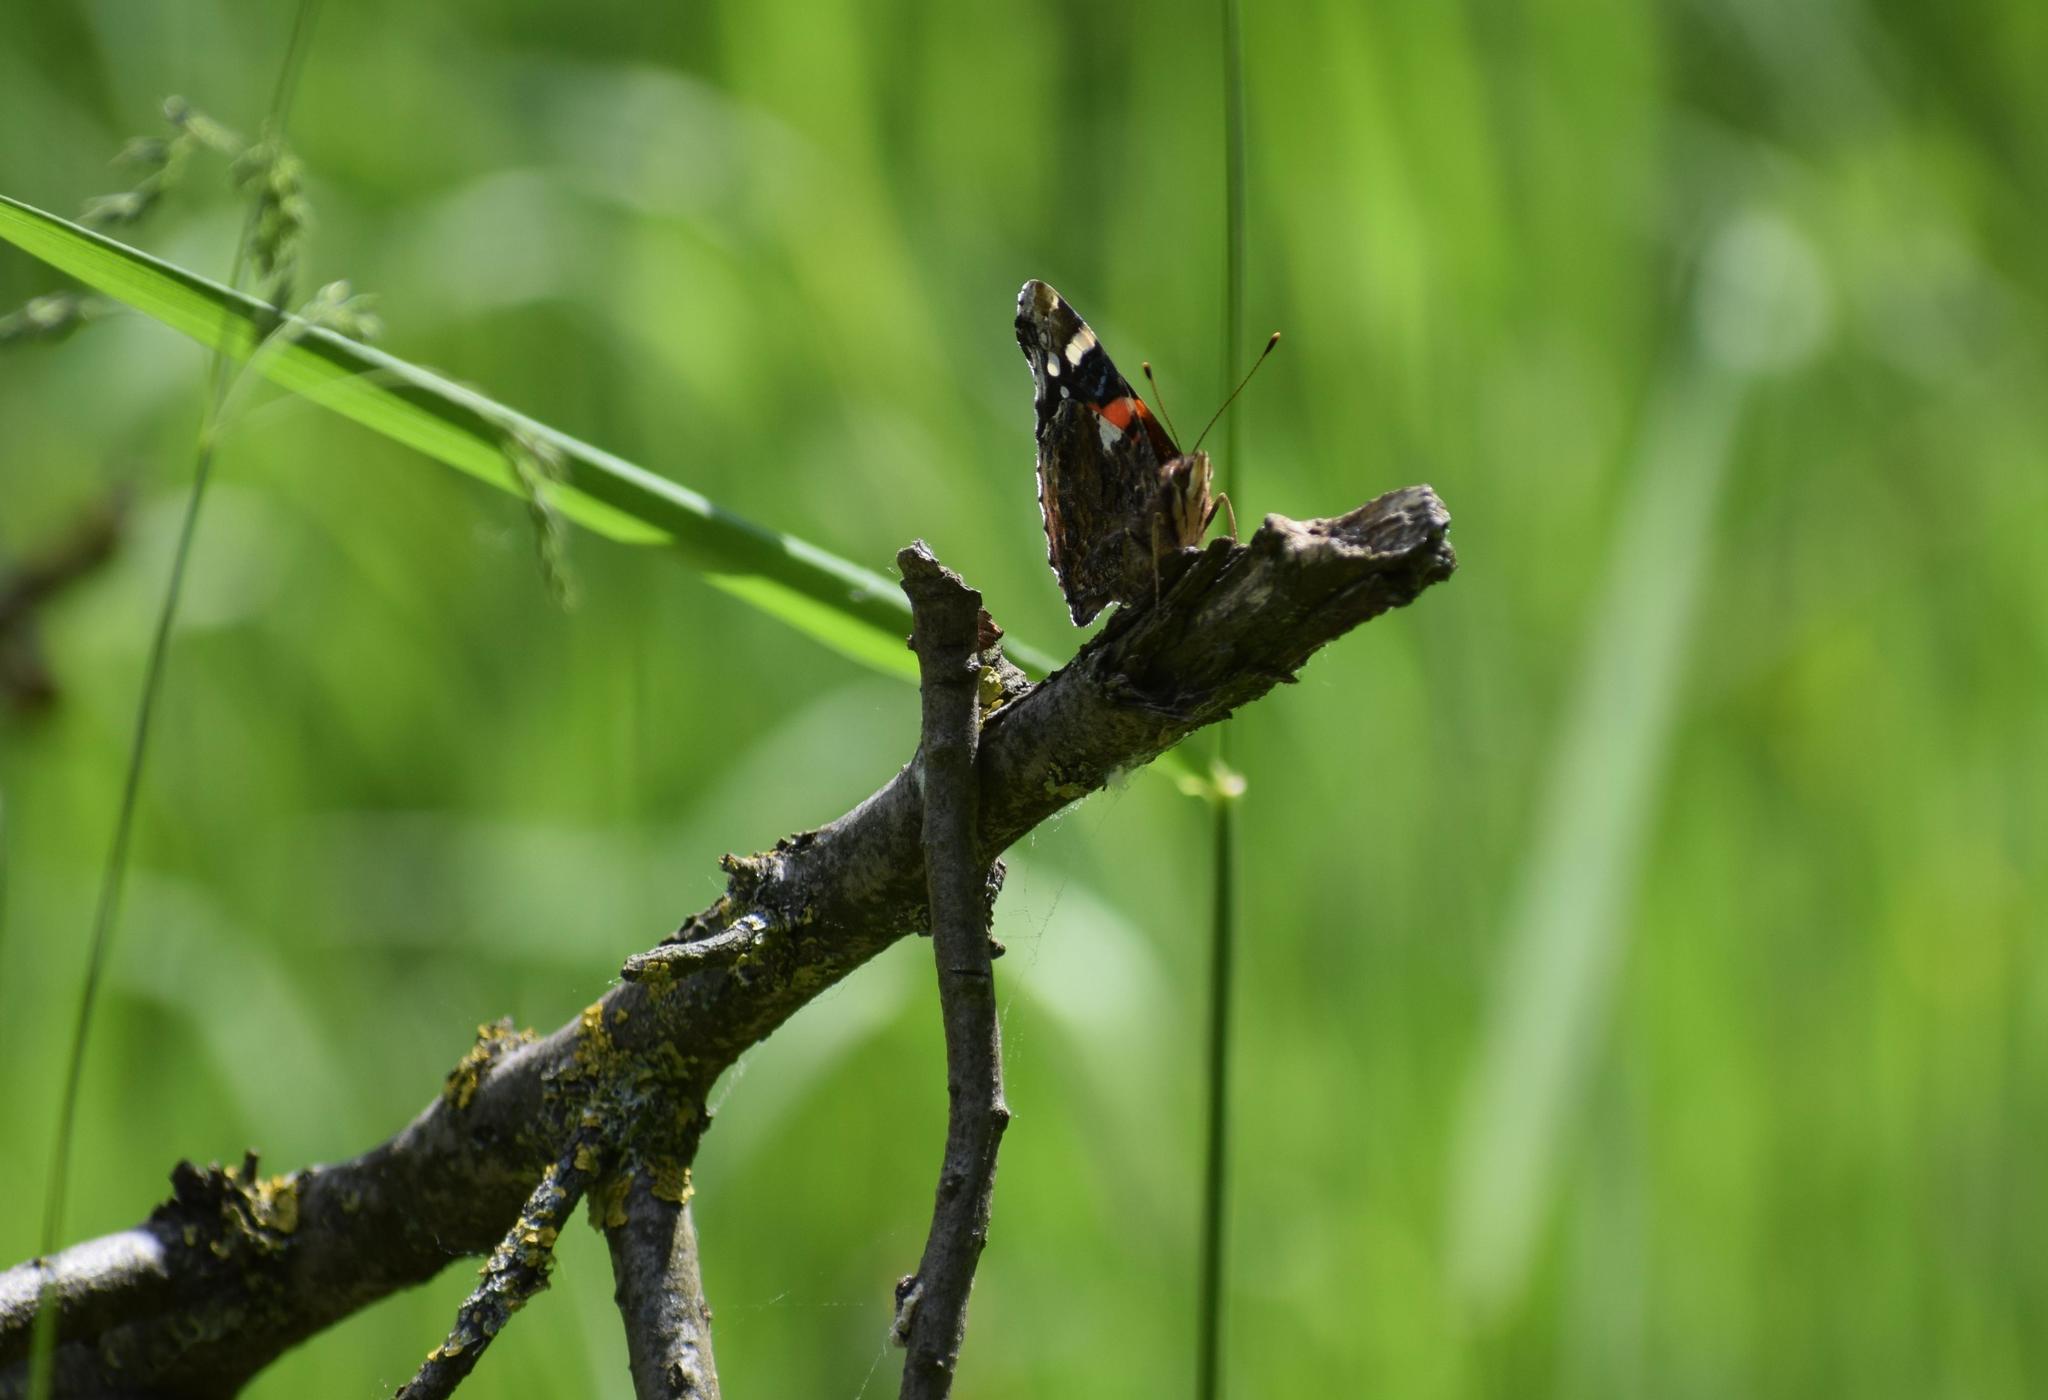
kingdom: Animalia
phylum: Arthropoda
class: Insecta
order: Lepidoptera
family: Nymphalidae
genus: Vanessa
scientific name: Vanessa atalanta
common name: Red admiral
